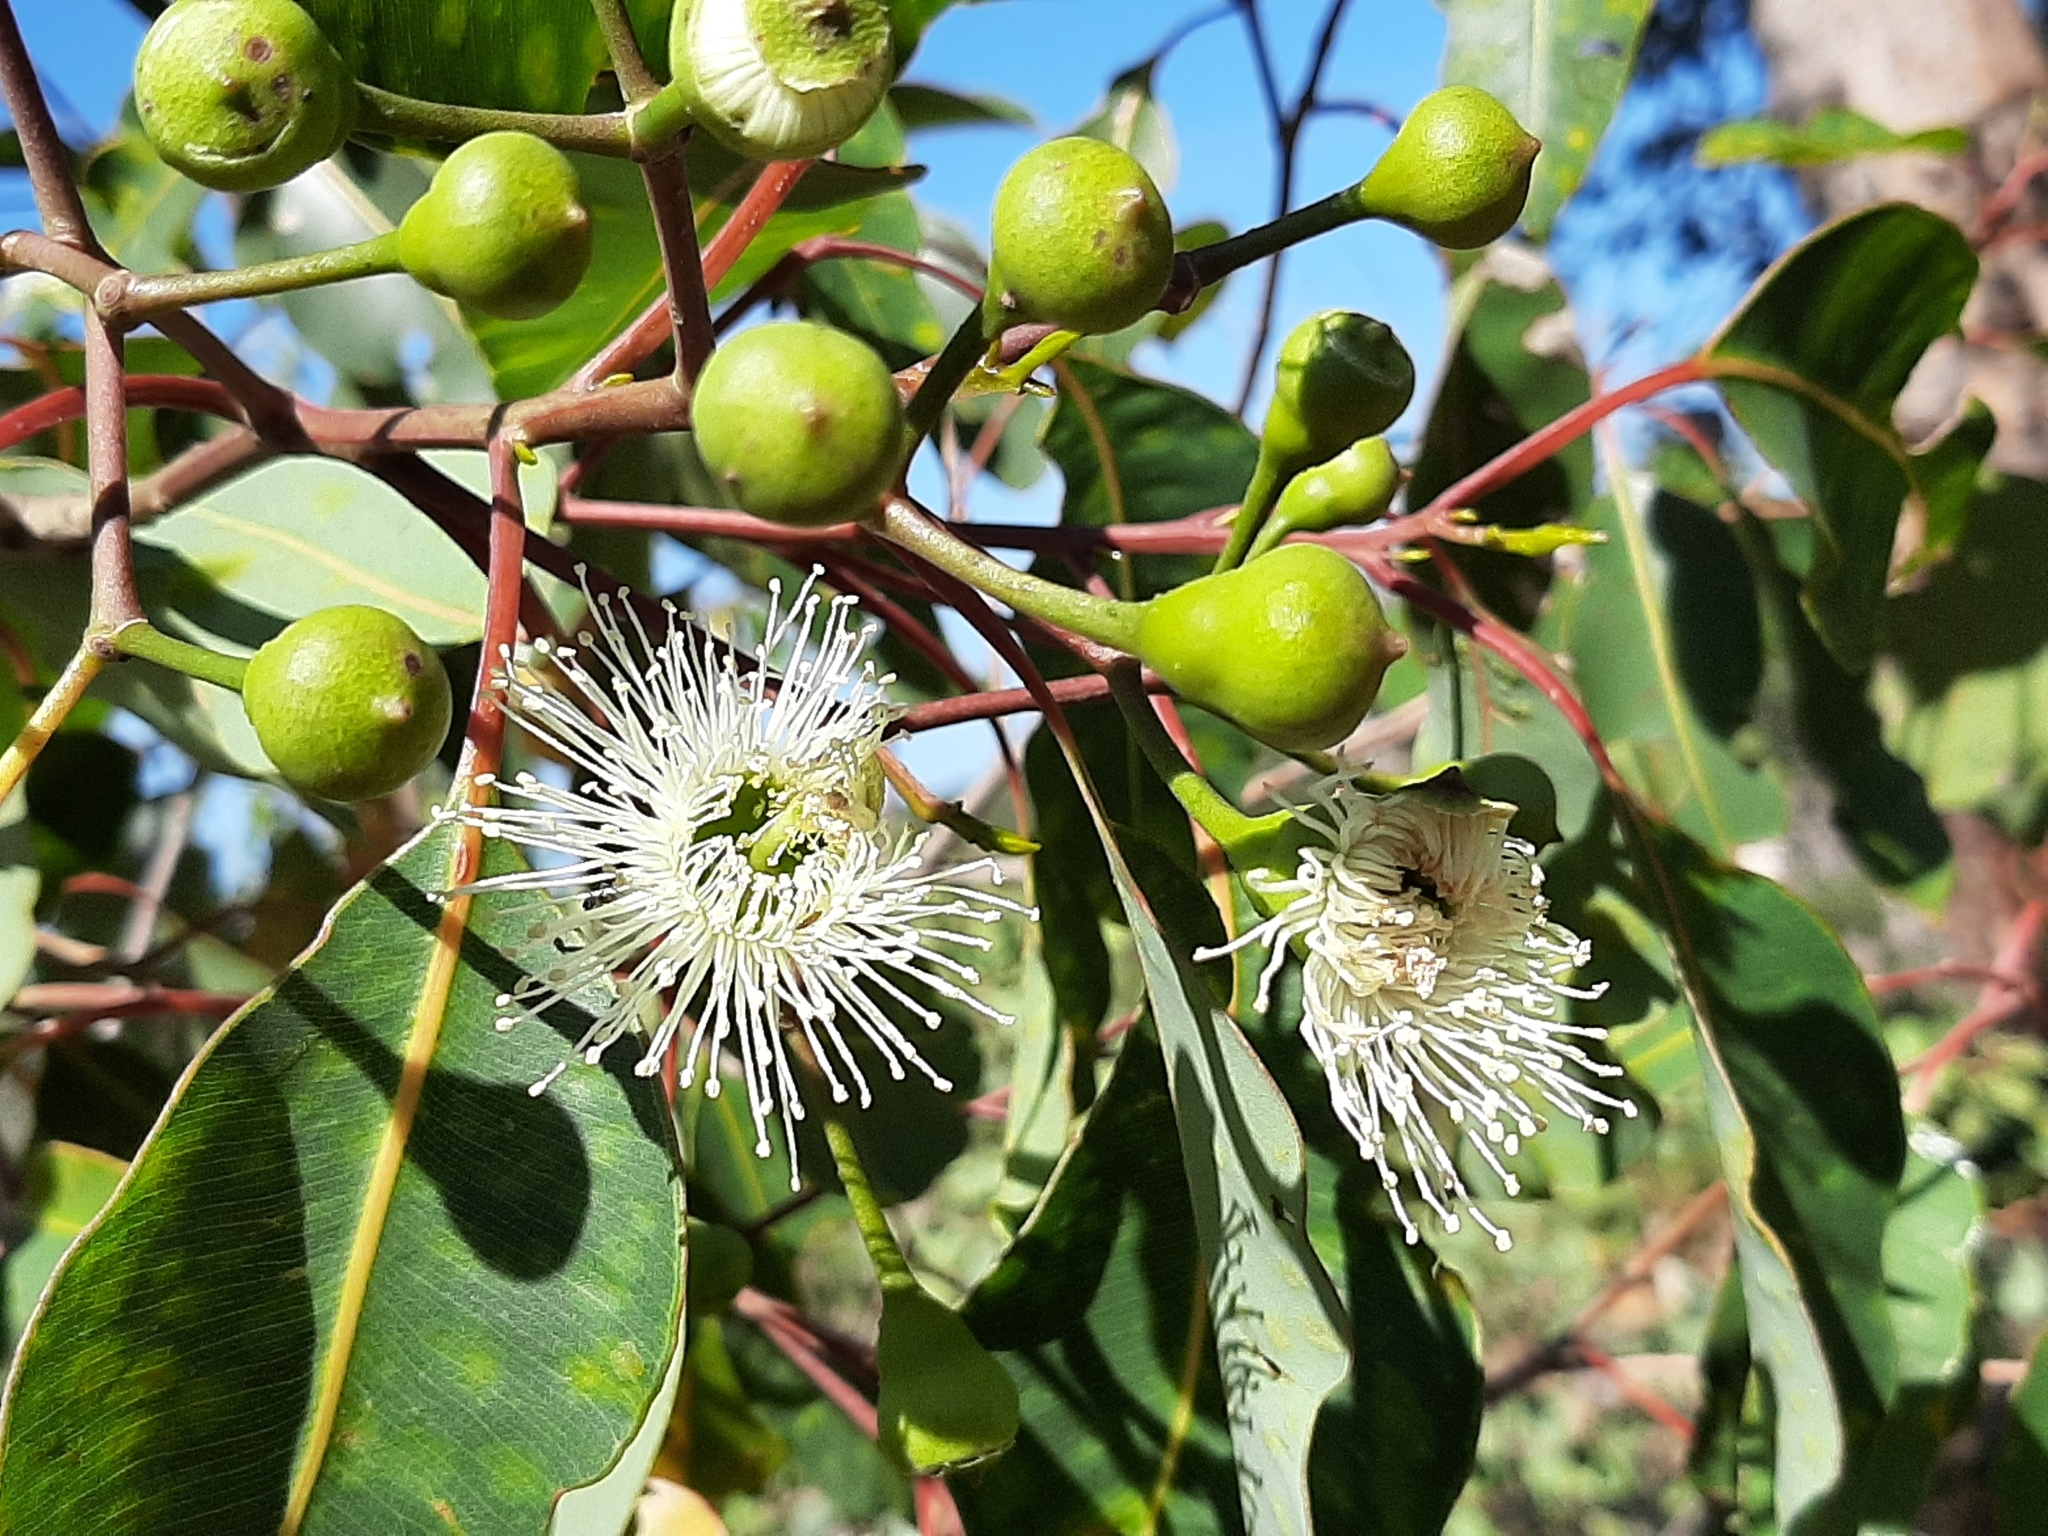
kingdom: Plantae
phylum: Tracheophyta
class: Magnoliopsida
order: Myrtales
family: Myrtaceae
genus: Corymbia
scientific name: Corymbia calophylla
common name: Marri
